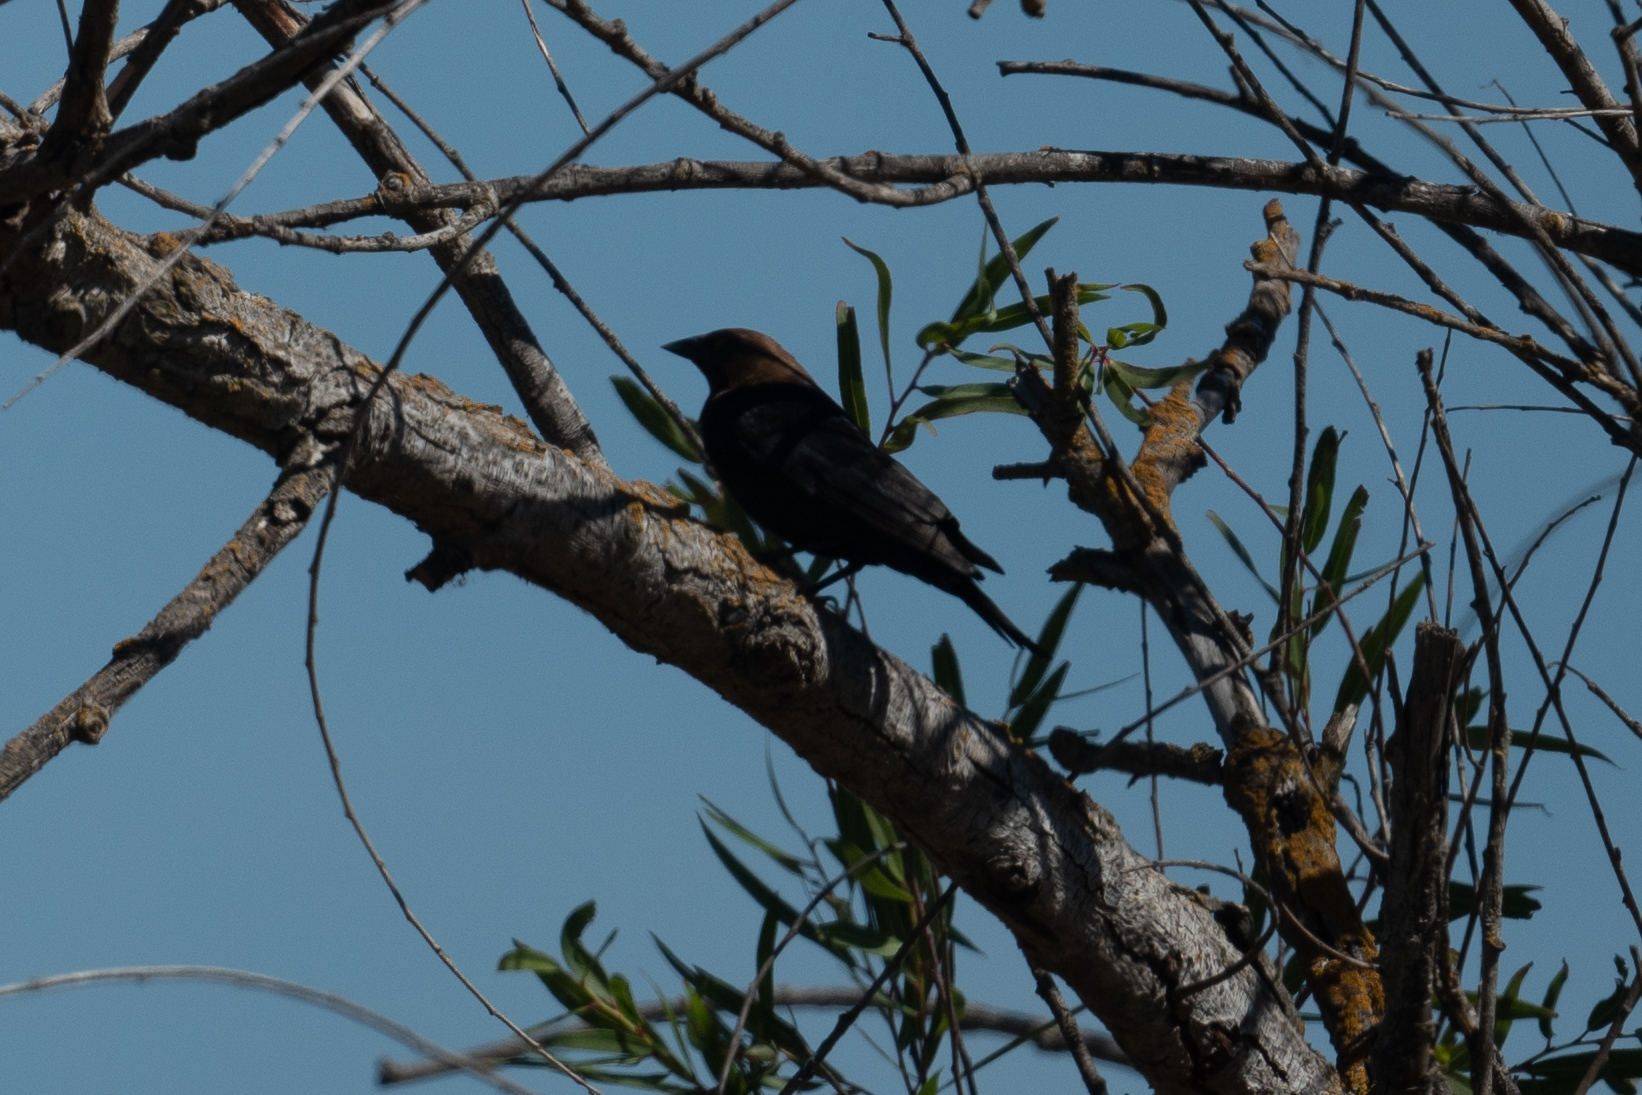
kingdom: Animalia
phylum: Chordata
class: Aves
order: Passeriformes
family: Icteridae
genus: Molothrus
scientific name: Molothrus ater
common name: Brown-headed cowbird
